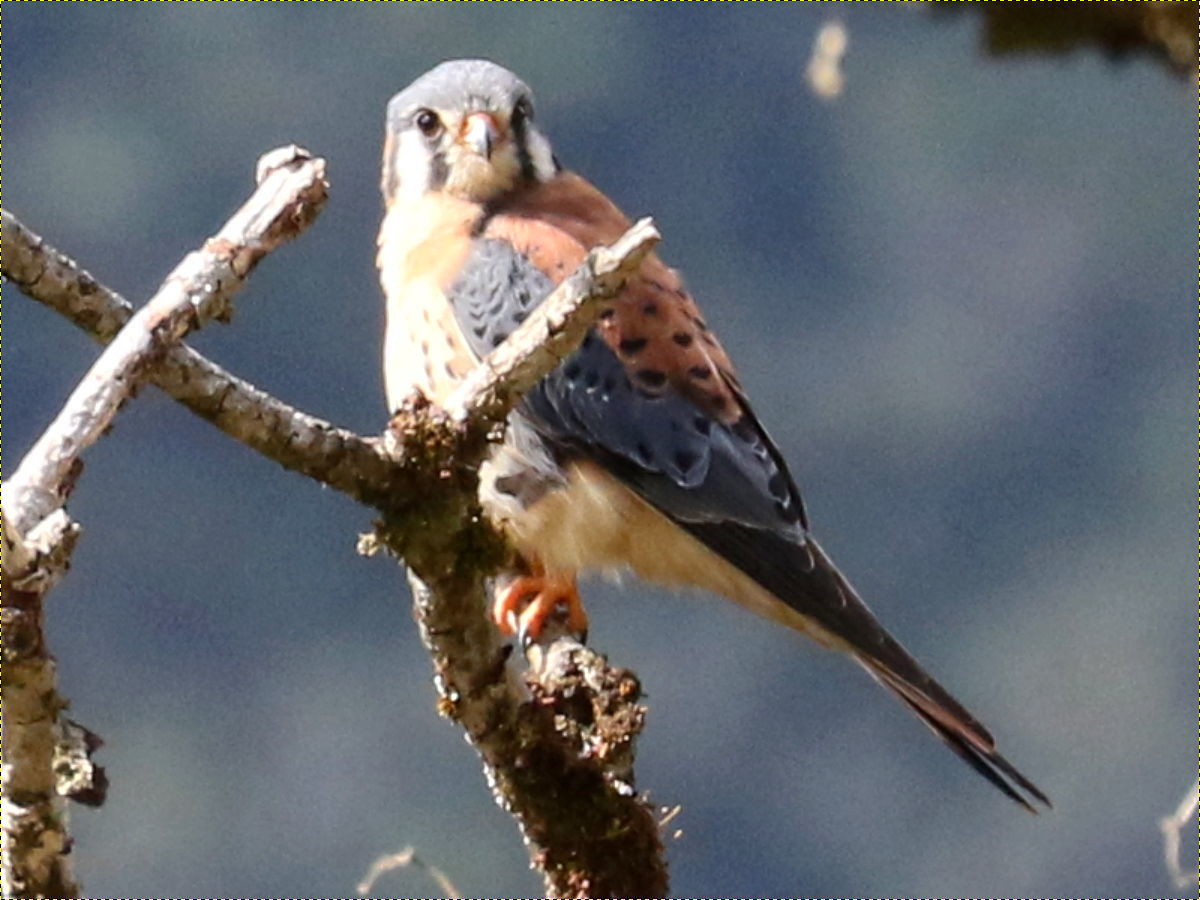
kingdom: Animalia
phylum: Chordata
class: Aves
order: Falconiformes
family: Falconidae
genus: Falco
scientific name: Falco sparverius
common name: American kestrel
